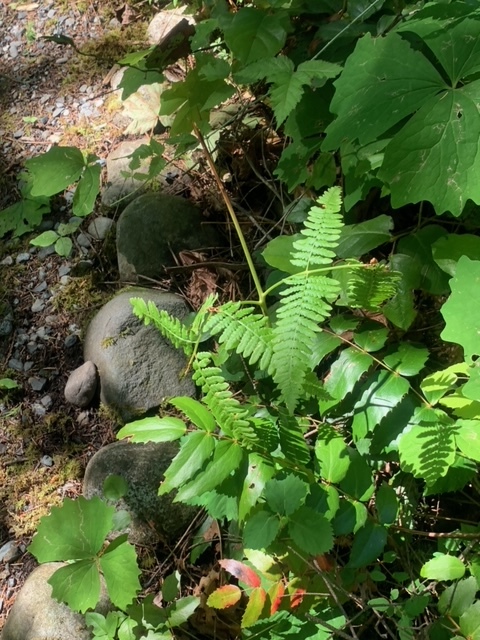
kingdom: Plantae
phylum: Tracheophyta
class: Polypodiopsida
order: Polypodiales
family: Dennstaedtiaceae
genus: Pteridium
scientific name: Pteridium aquilinum
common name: Bracken
